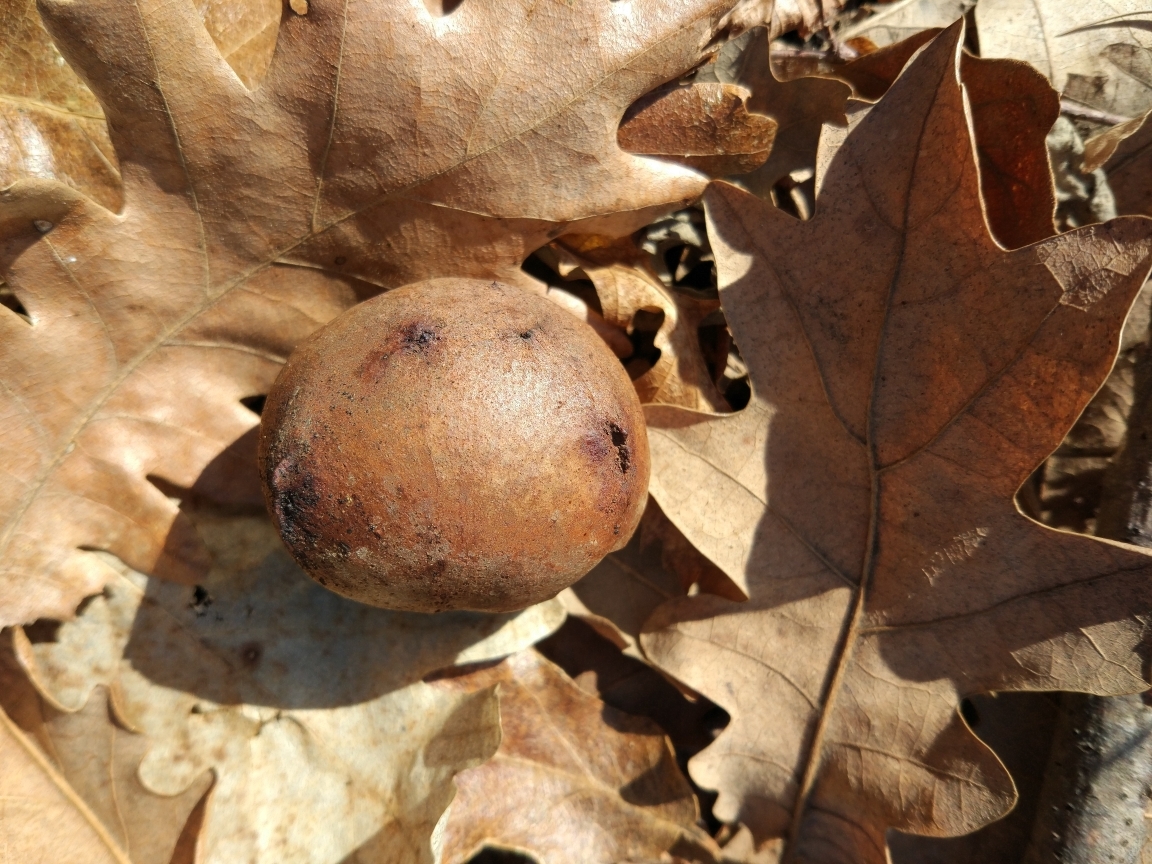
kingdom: Animalia
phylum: Arthropoda
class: Insecta
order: Hymenoptera
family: Cynipidae
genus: Andricus
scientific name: Andricus quercustozae
